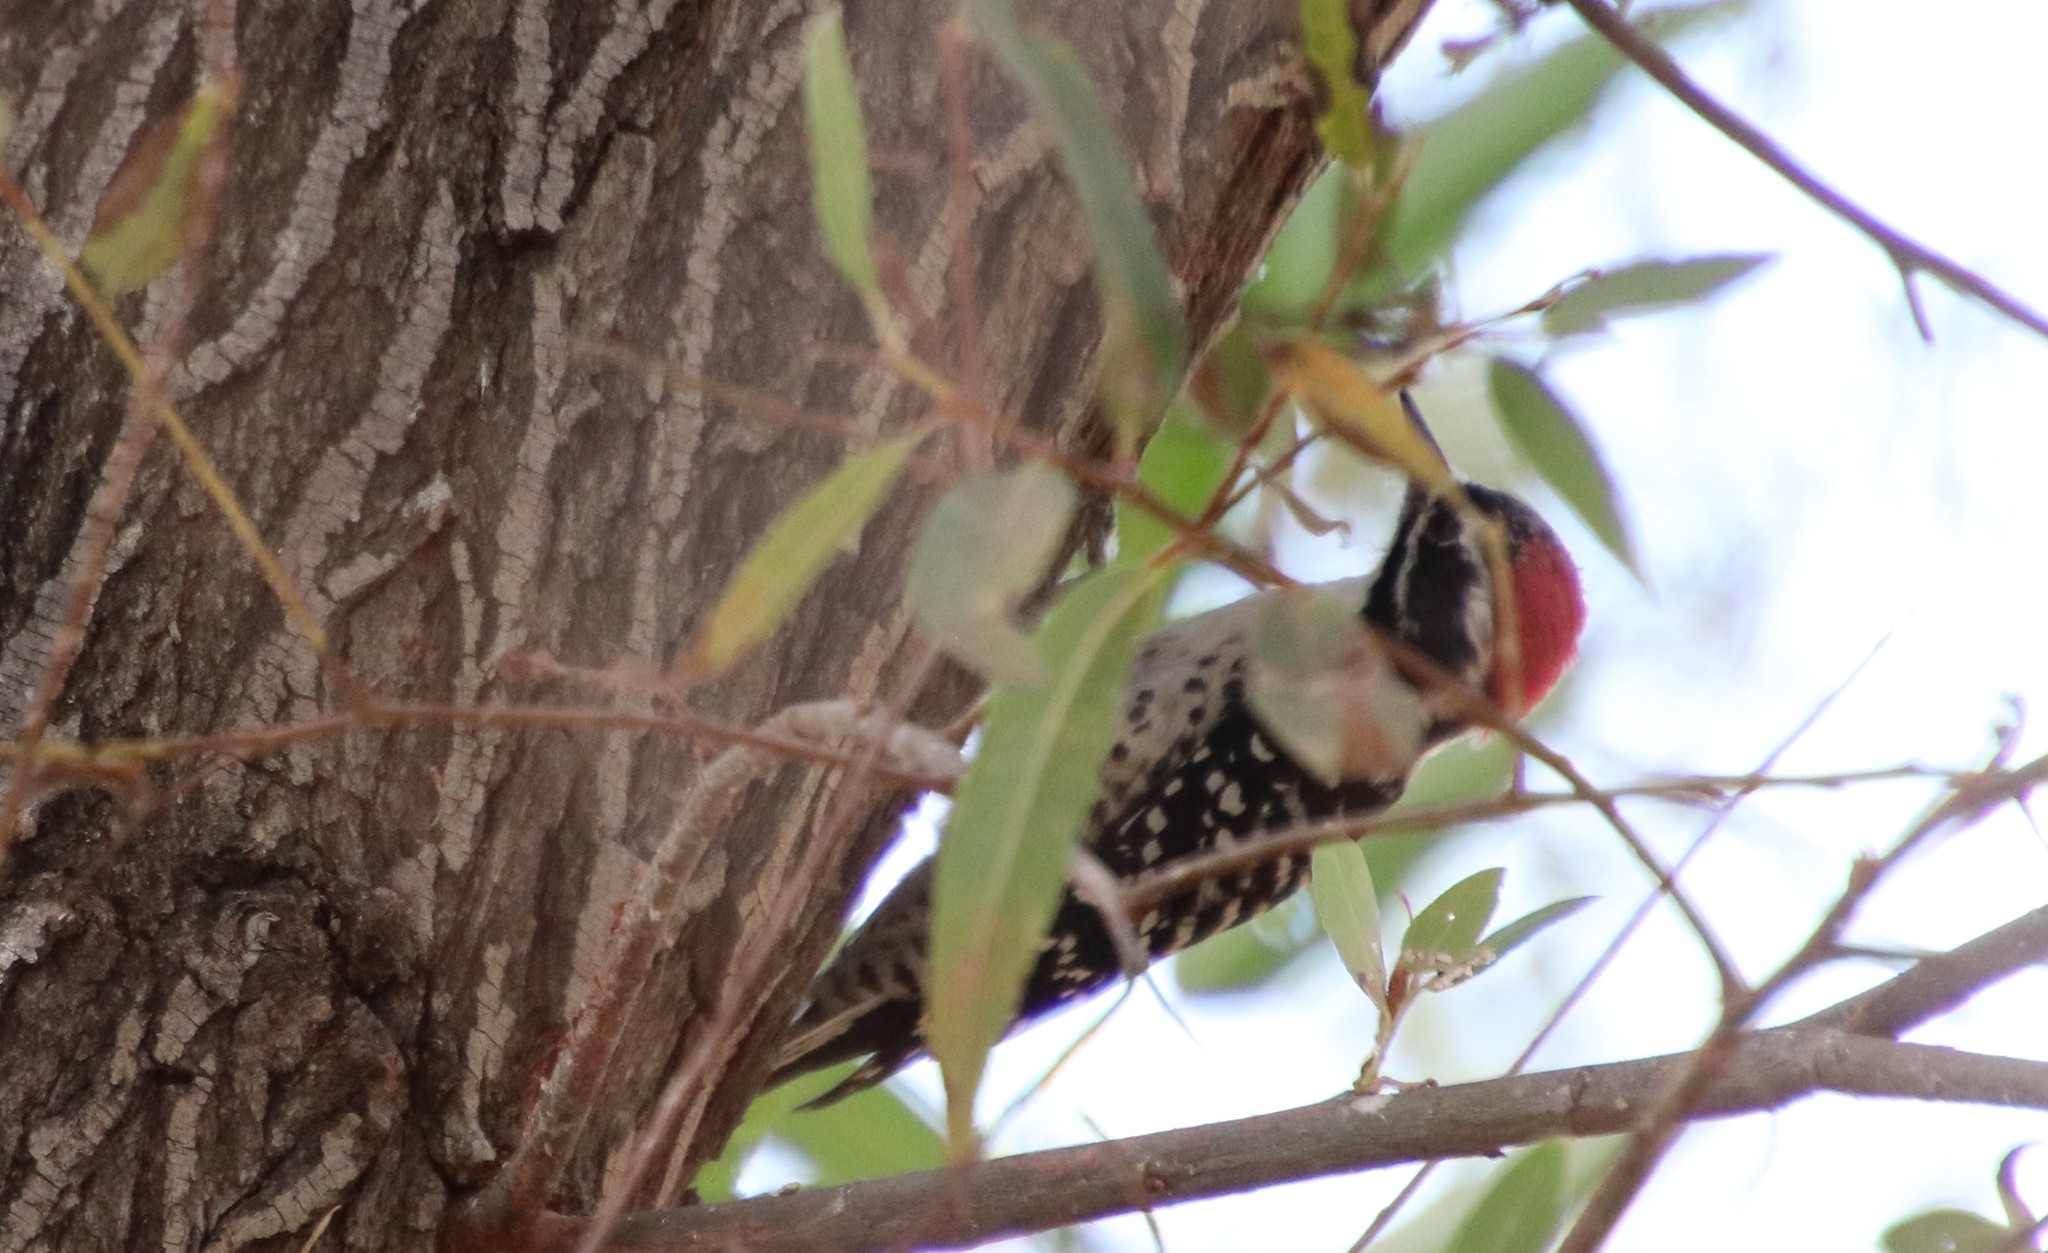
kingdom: Animalia
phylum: Chordata
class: Aves
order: Piciformes
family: Picidae
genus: Dryobates
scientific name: Dryobates nuttallii
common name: Nuttall's woodpecker
